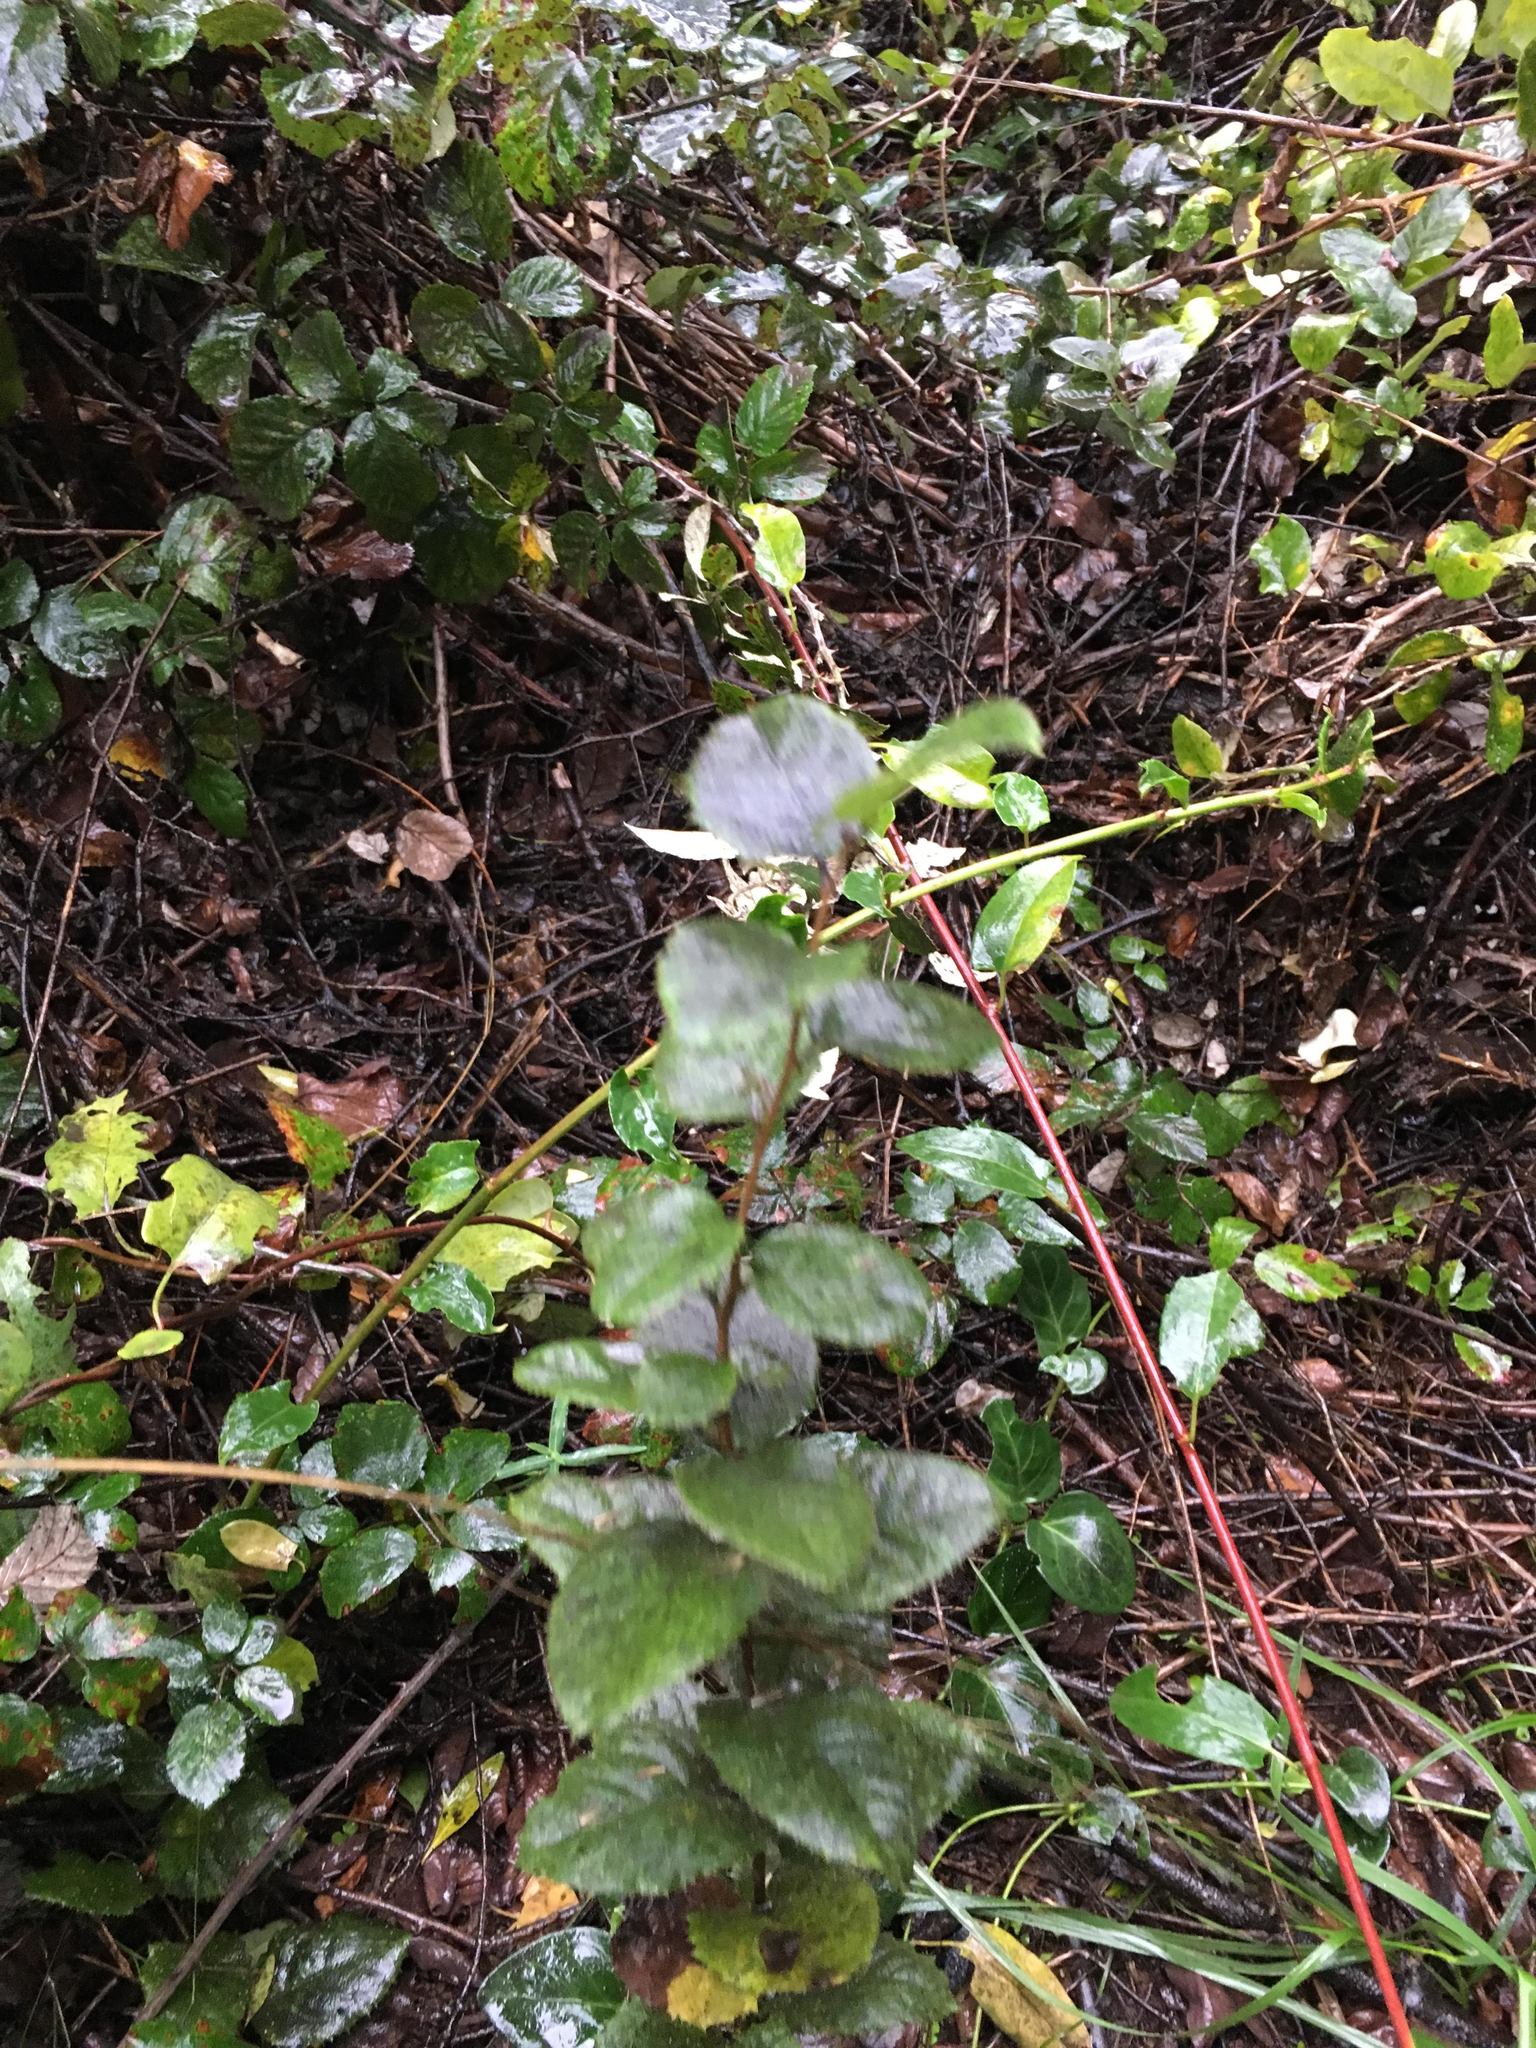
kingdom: Plantae
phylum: Tracheophyta
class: Magnoliopsida
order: Asterales
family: Asteraceae
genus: Proustia
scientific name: Proustia pyrifolia
